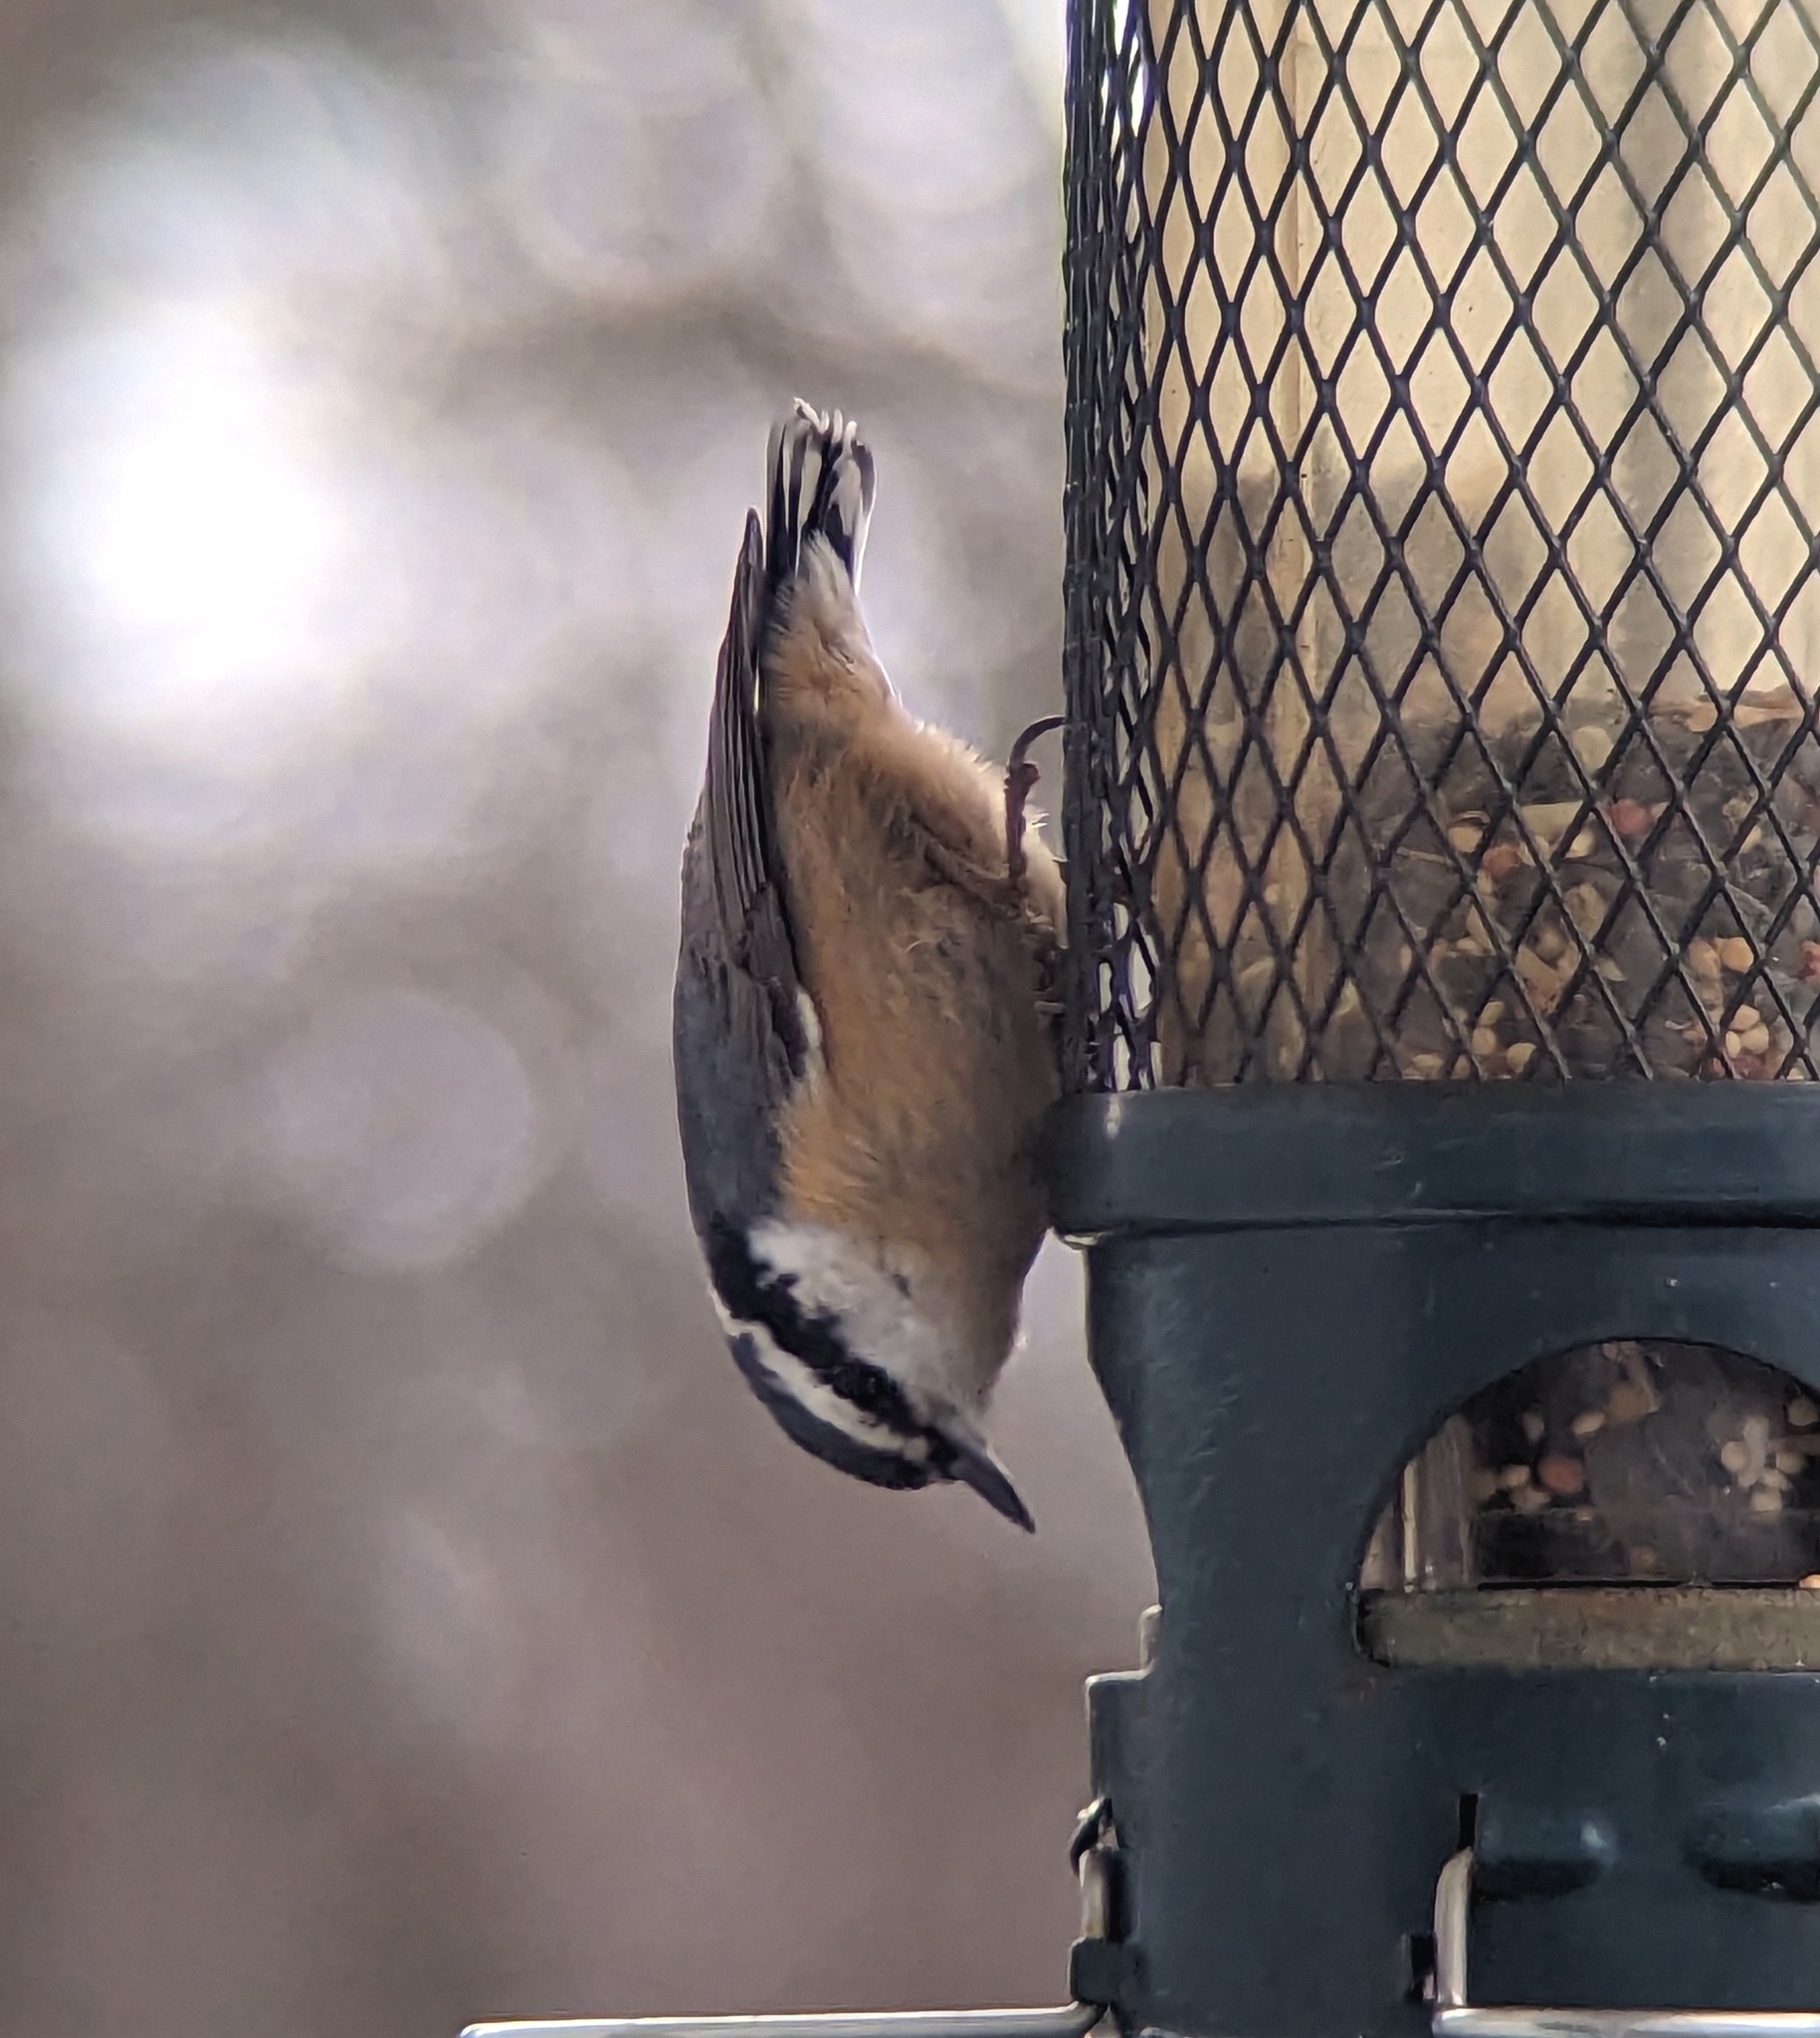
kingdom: Animalia
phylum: Chordata
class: Aves
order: Passeriformes
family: Sittidae
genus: Sitta
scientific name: Sitta canadensis
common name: Red-breasted nuthatch
